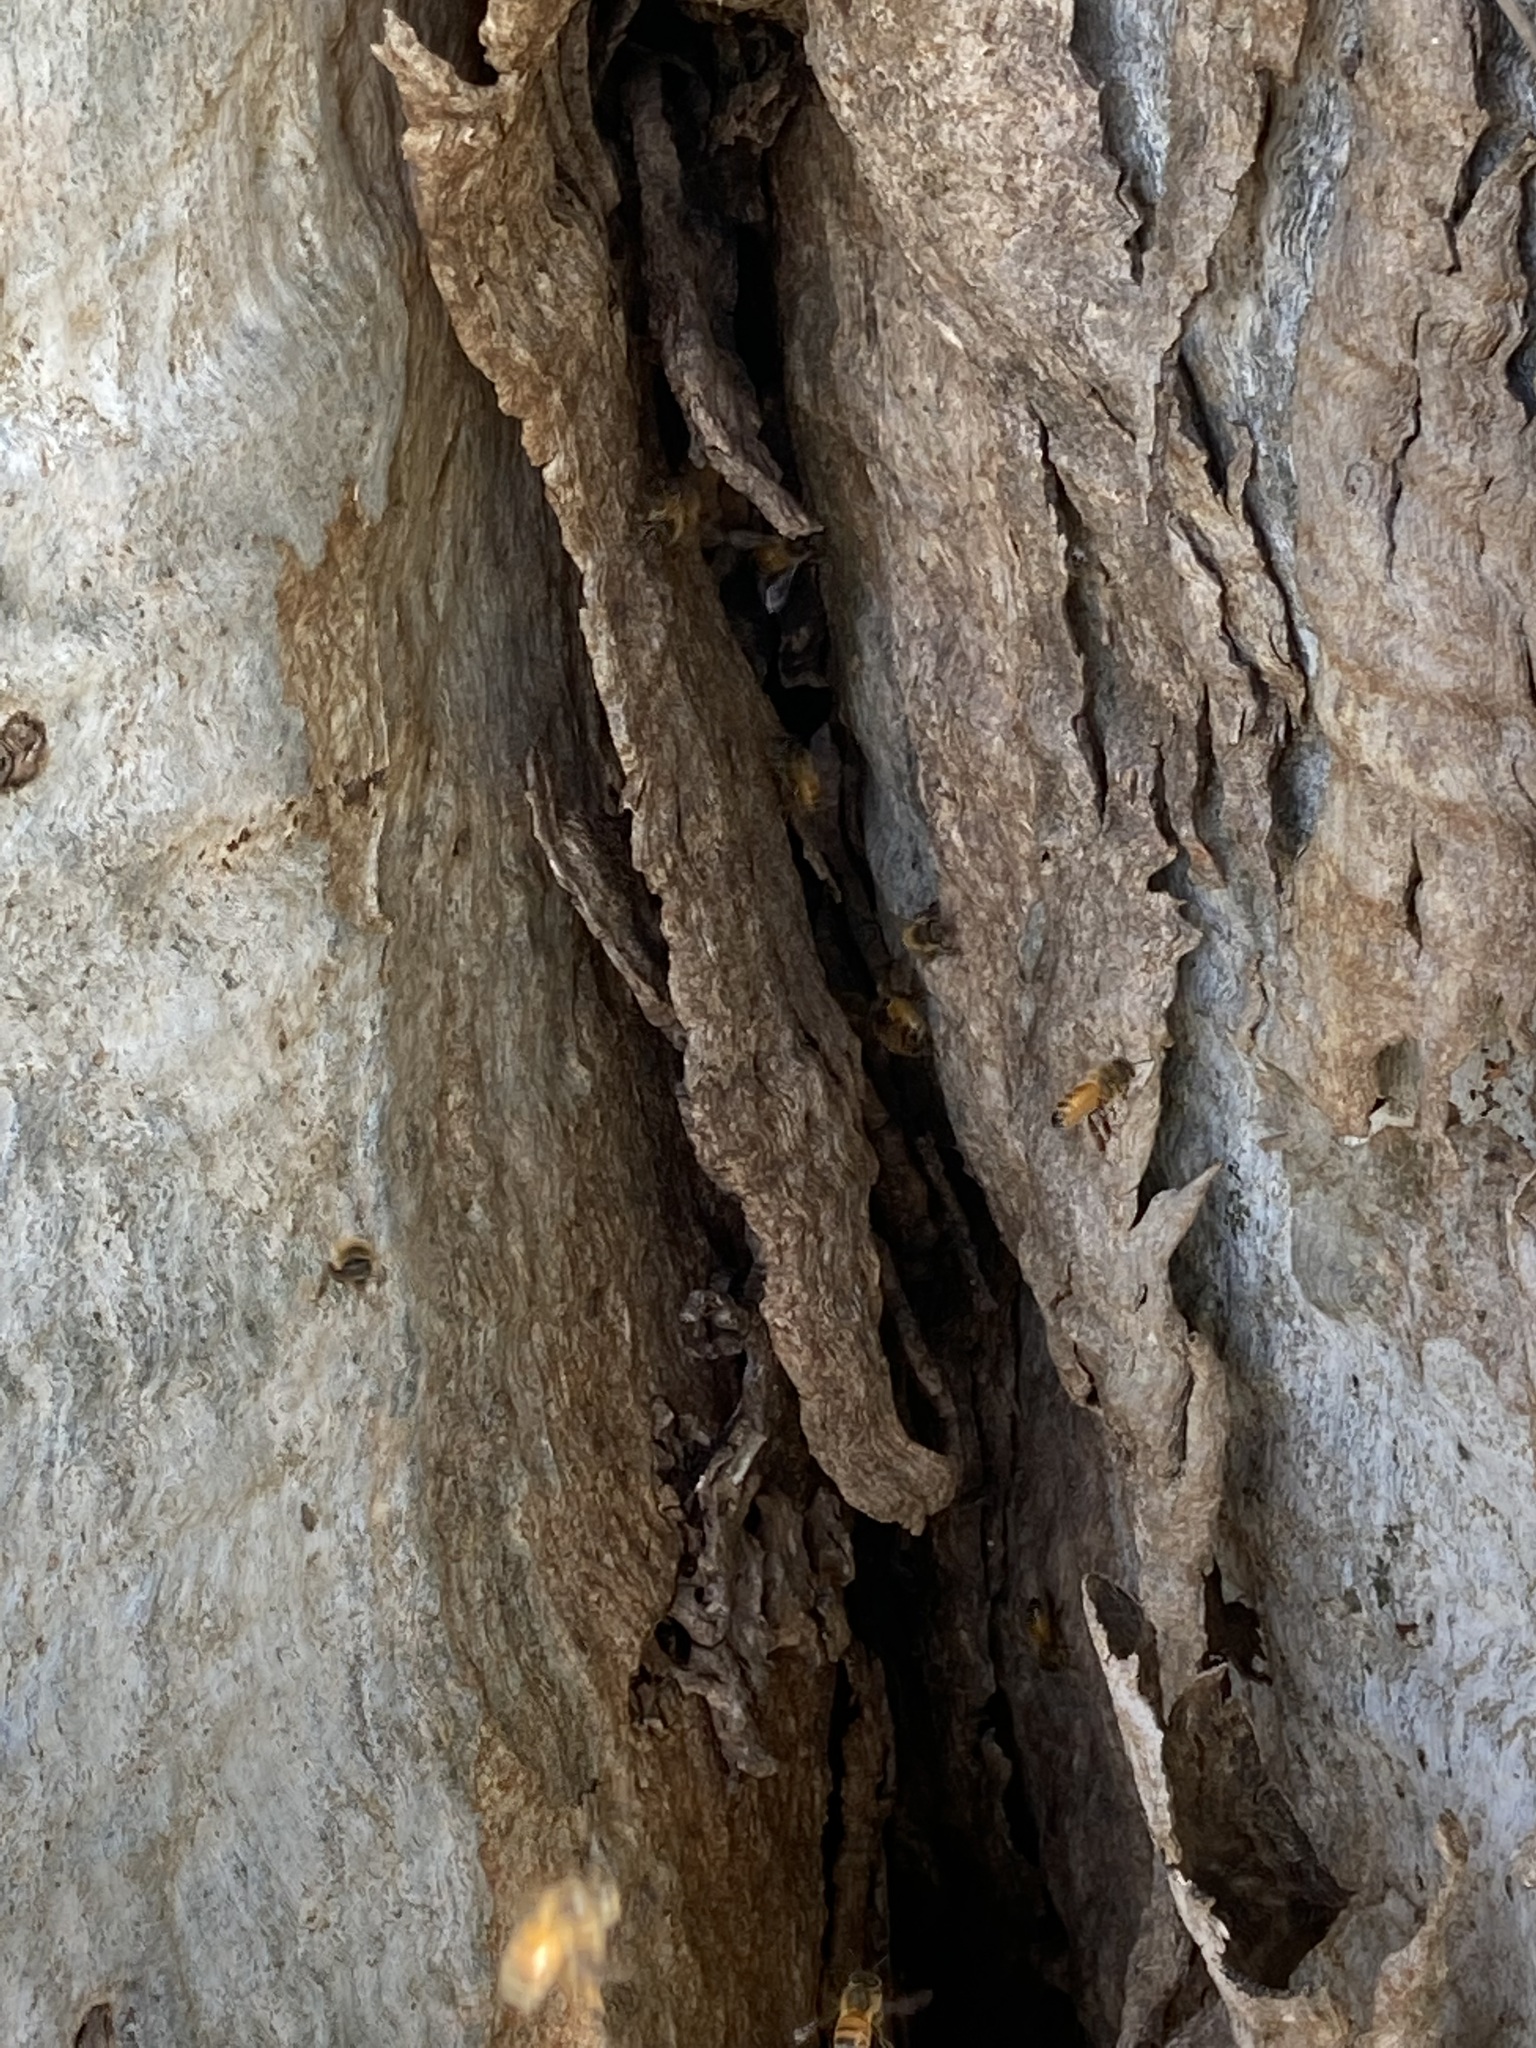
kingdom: Animalia
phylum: Arthropoda
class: Insecta
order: Hymenoptera
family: Apidae
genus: Apis
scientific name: Apis mellifera
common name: Honey bee
